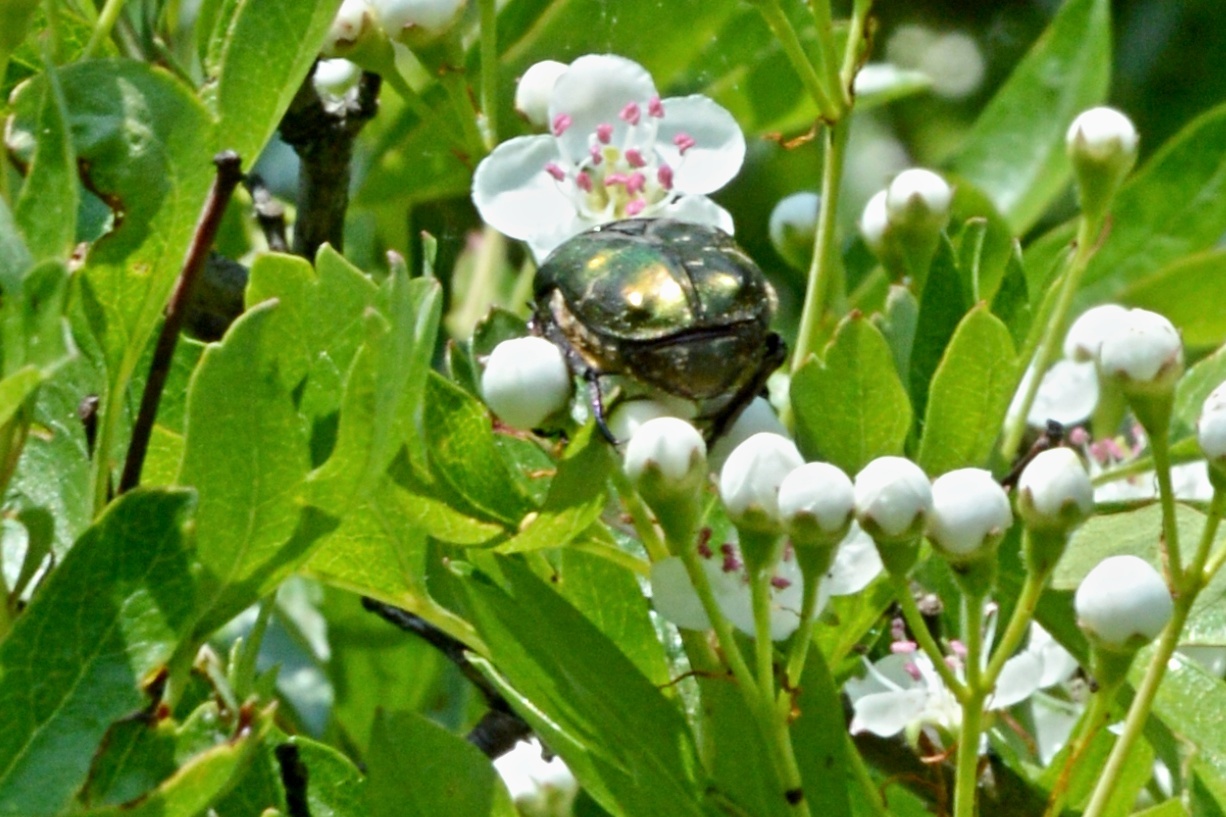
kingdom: Animalia
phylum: Arthropoda
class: Insecta
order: Coleoptera
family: Scarabaeidae
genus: Protaetia
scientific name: Protaetia cuprea
